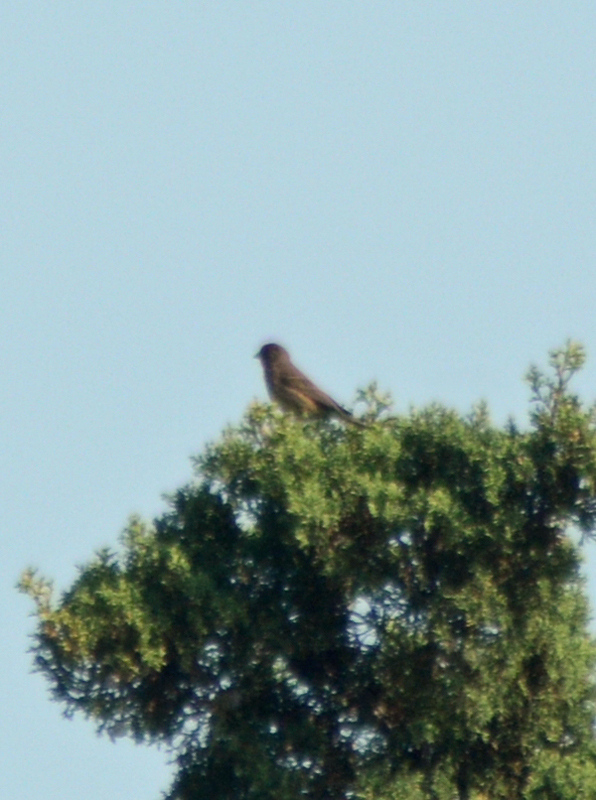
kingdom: Animalia
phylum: Chordata
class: Aves
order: Passeriformes
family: Fringillidae
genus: Haemorhous
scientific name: Haemorhous mexicanus
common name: House finch
